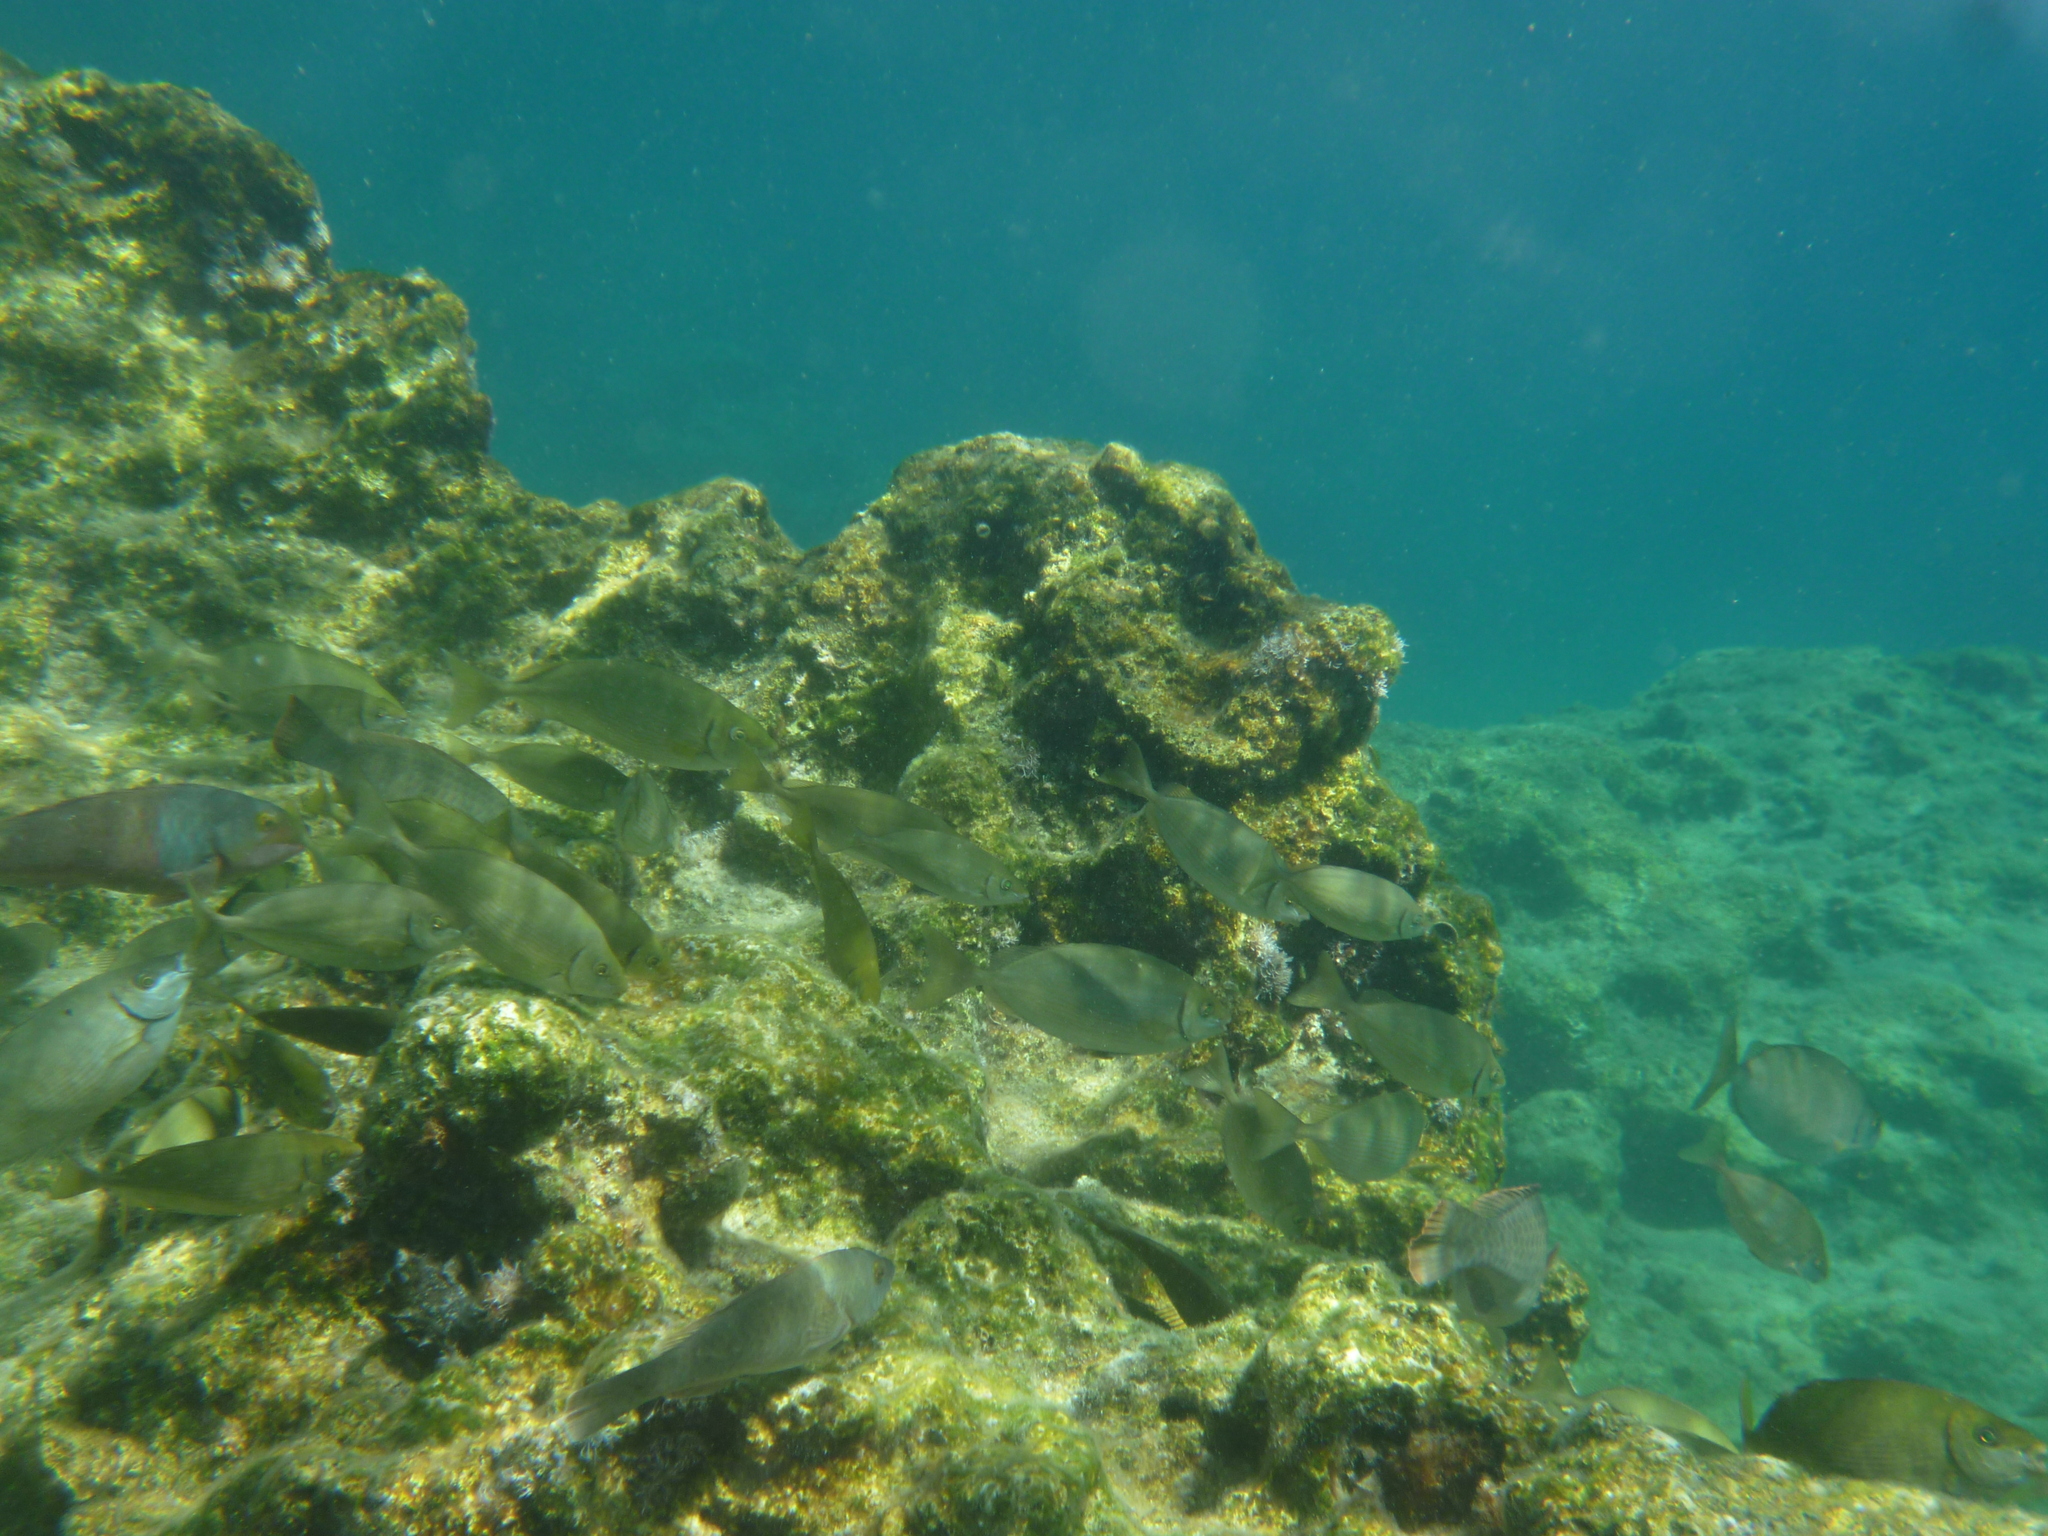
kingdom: Animalia
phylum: Chordata
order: Perciformes
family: Scaridae
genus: Sparisoma
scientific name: Sparisoma cretense
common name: Parrotfish
